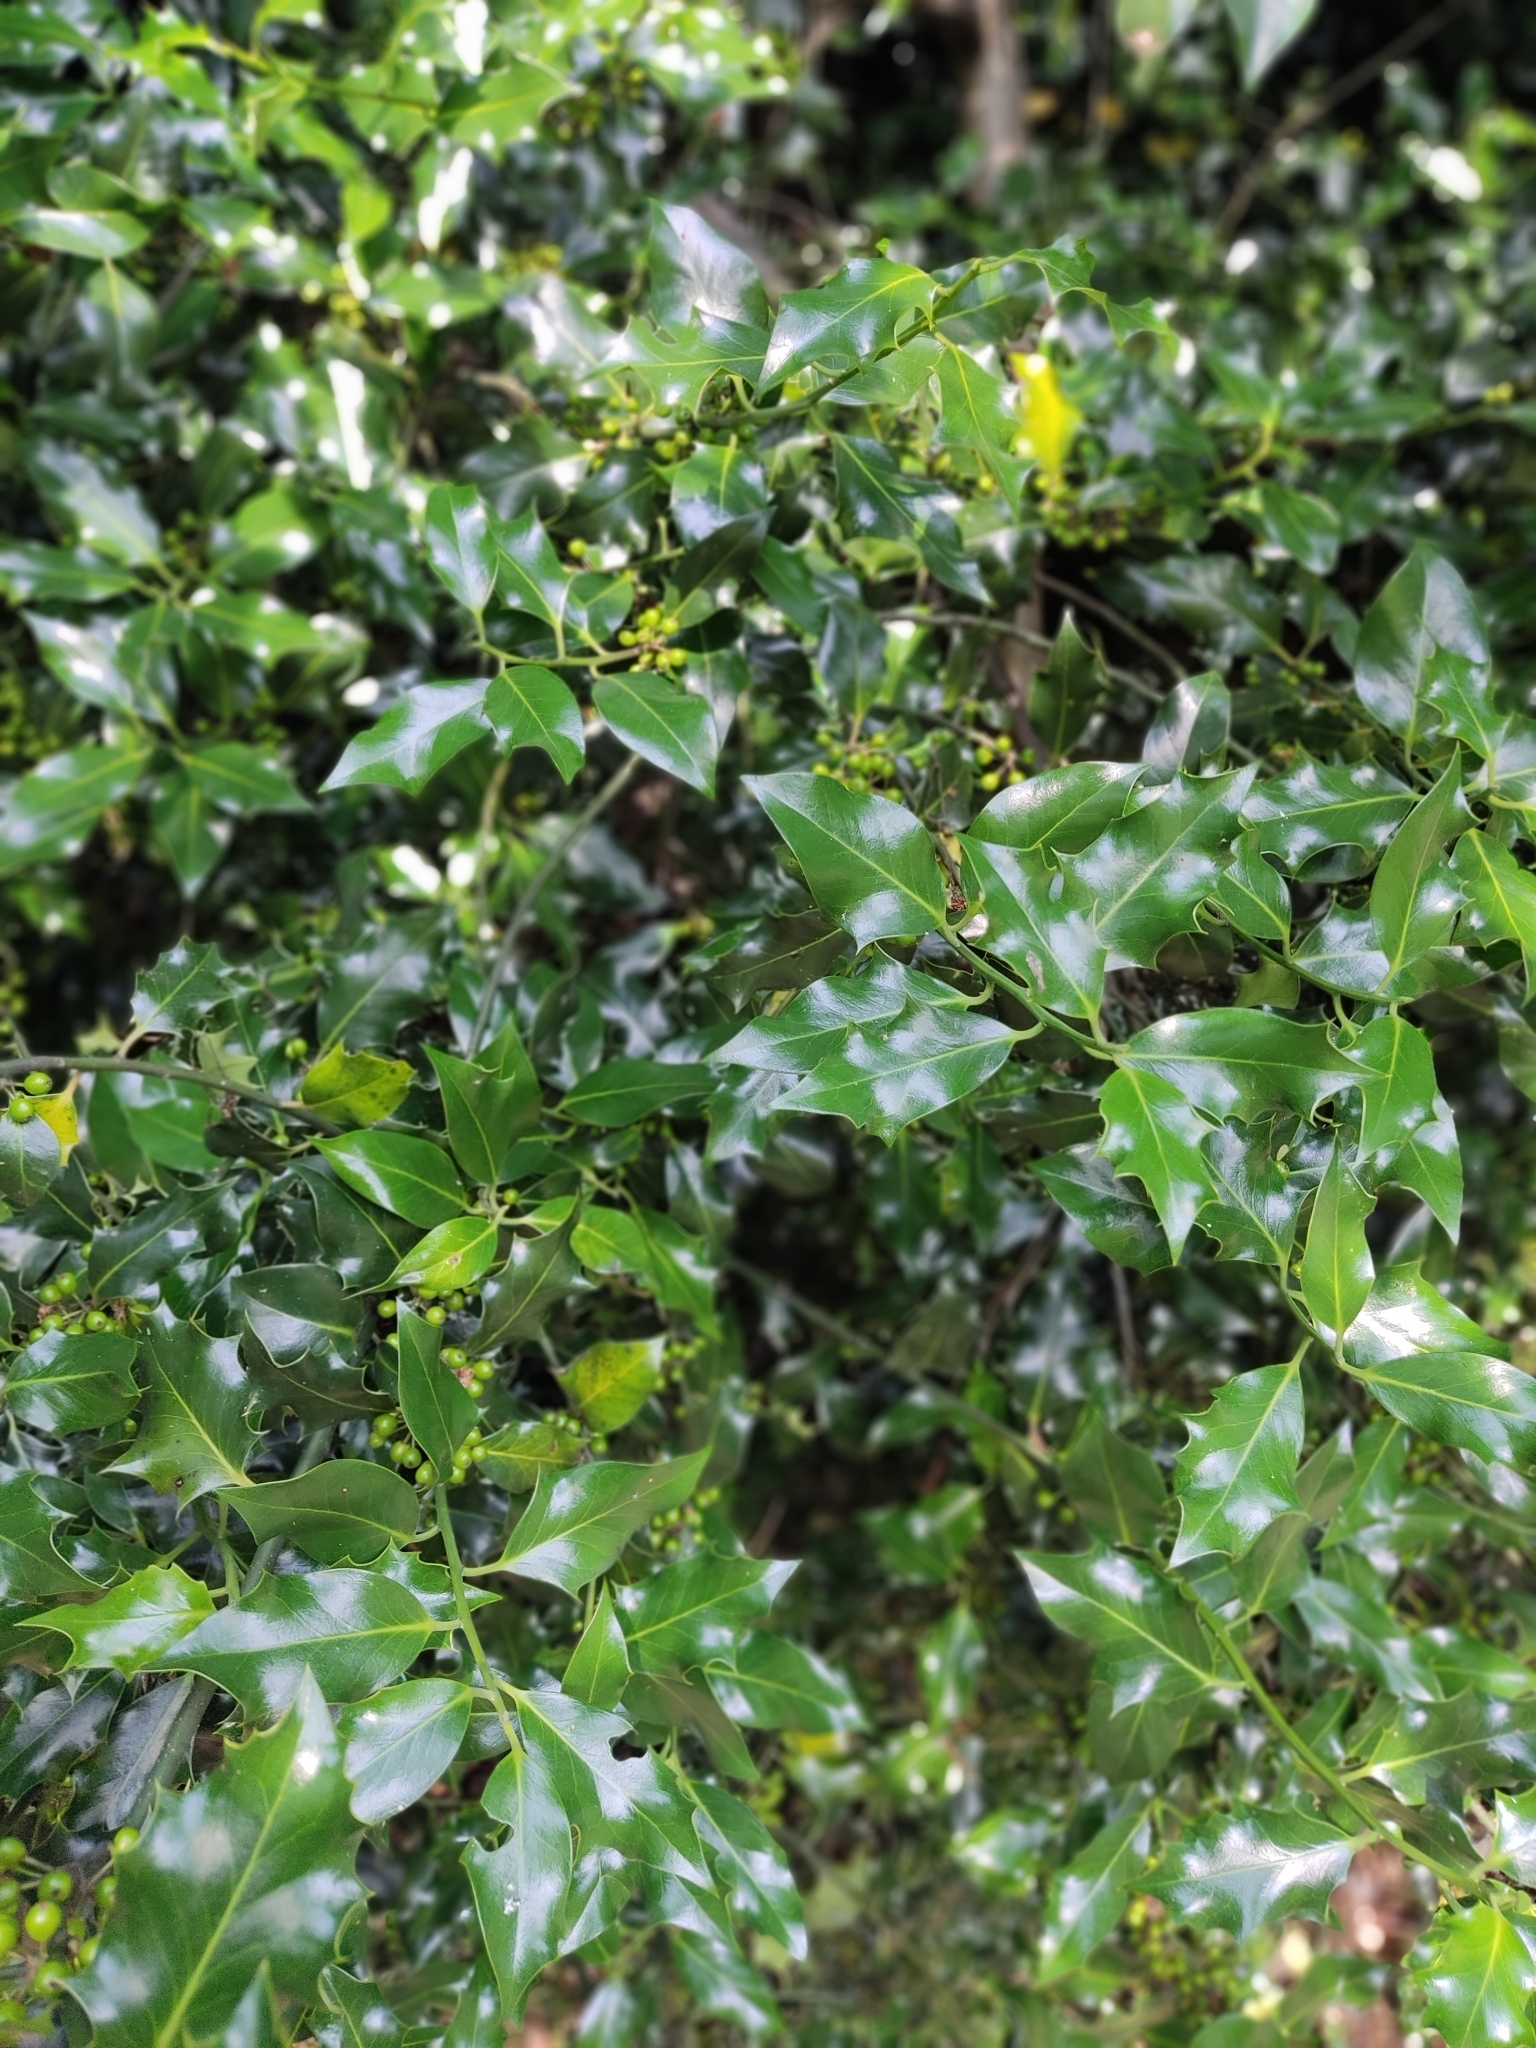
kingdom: Plantae
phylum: Tracheophyta
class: Magnoliopsida
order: Aquifoliales
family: Aquifoliaceae
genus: Ilex
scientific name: Ilex aquifolium
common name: English holly
